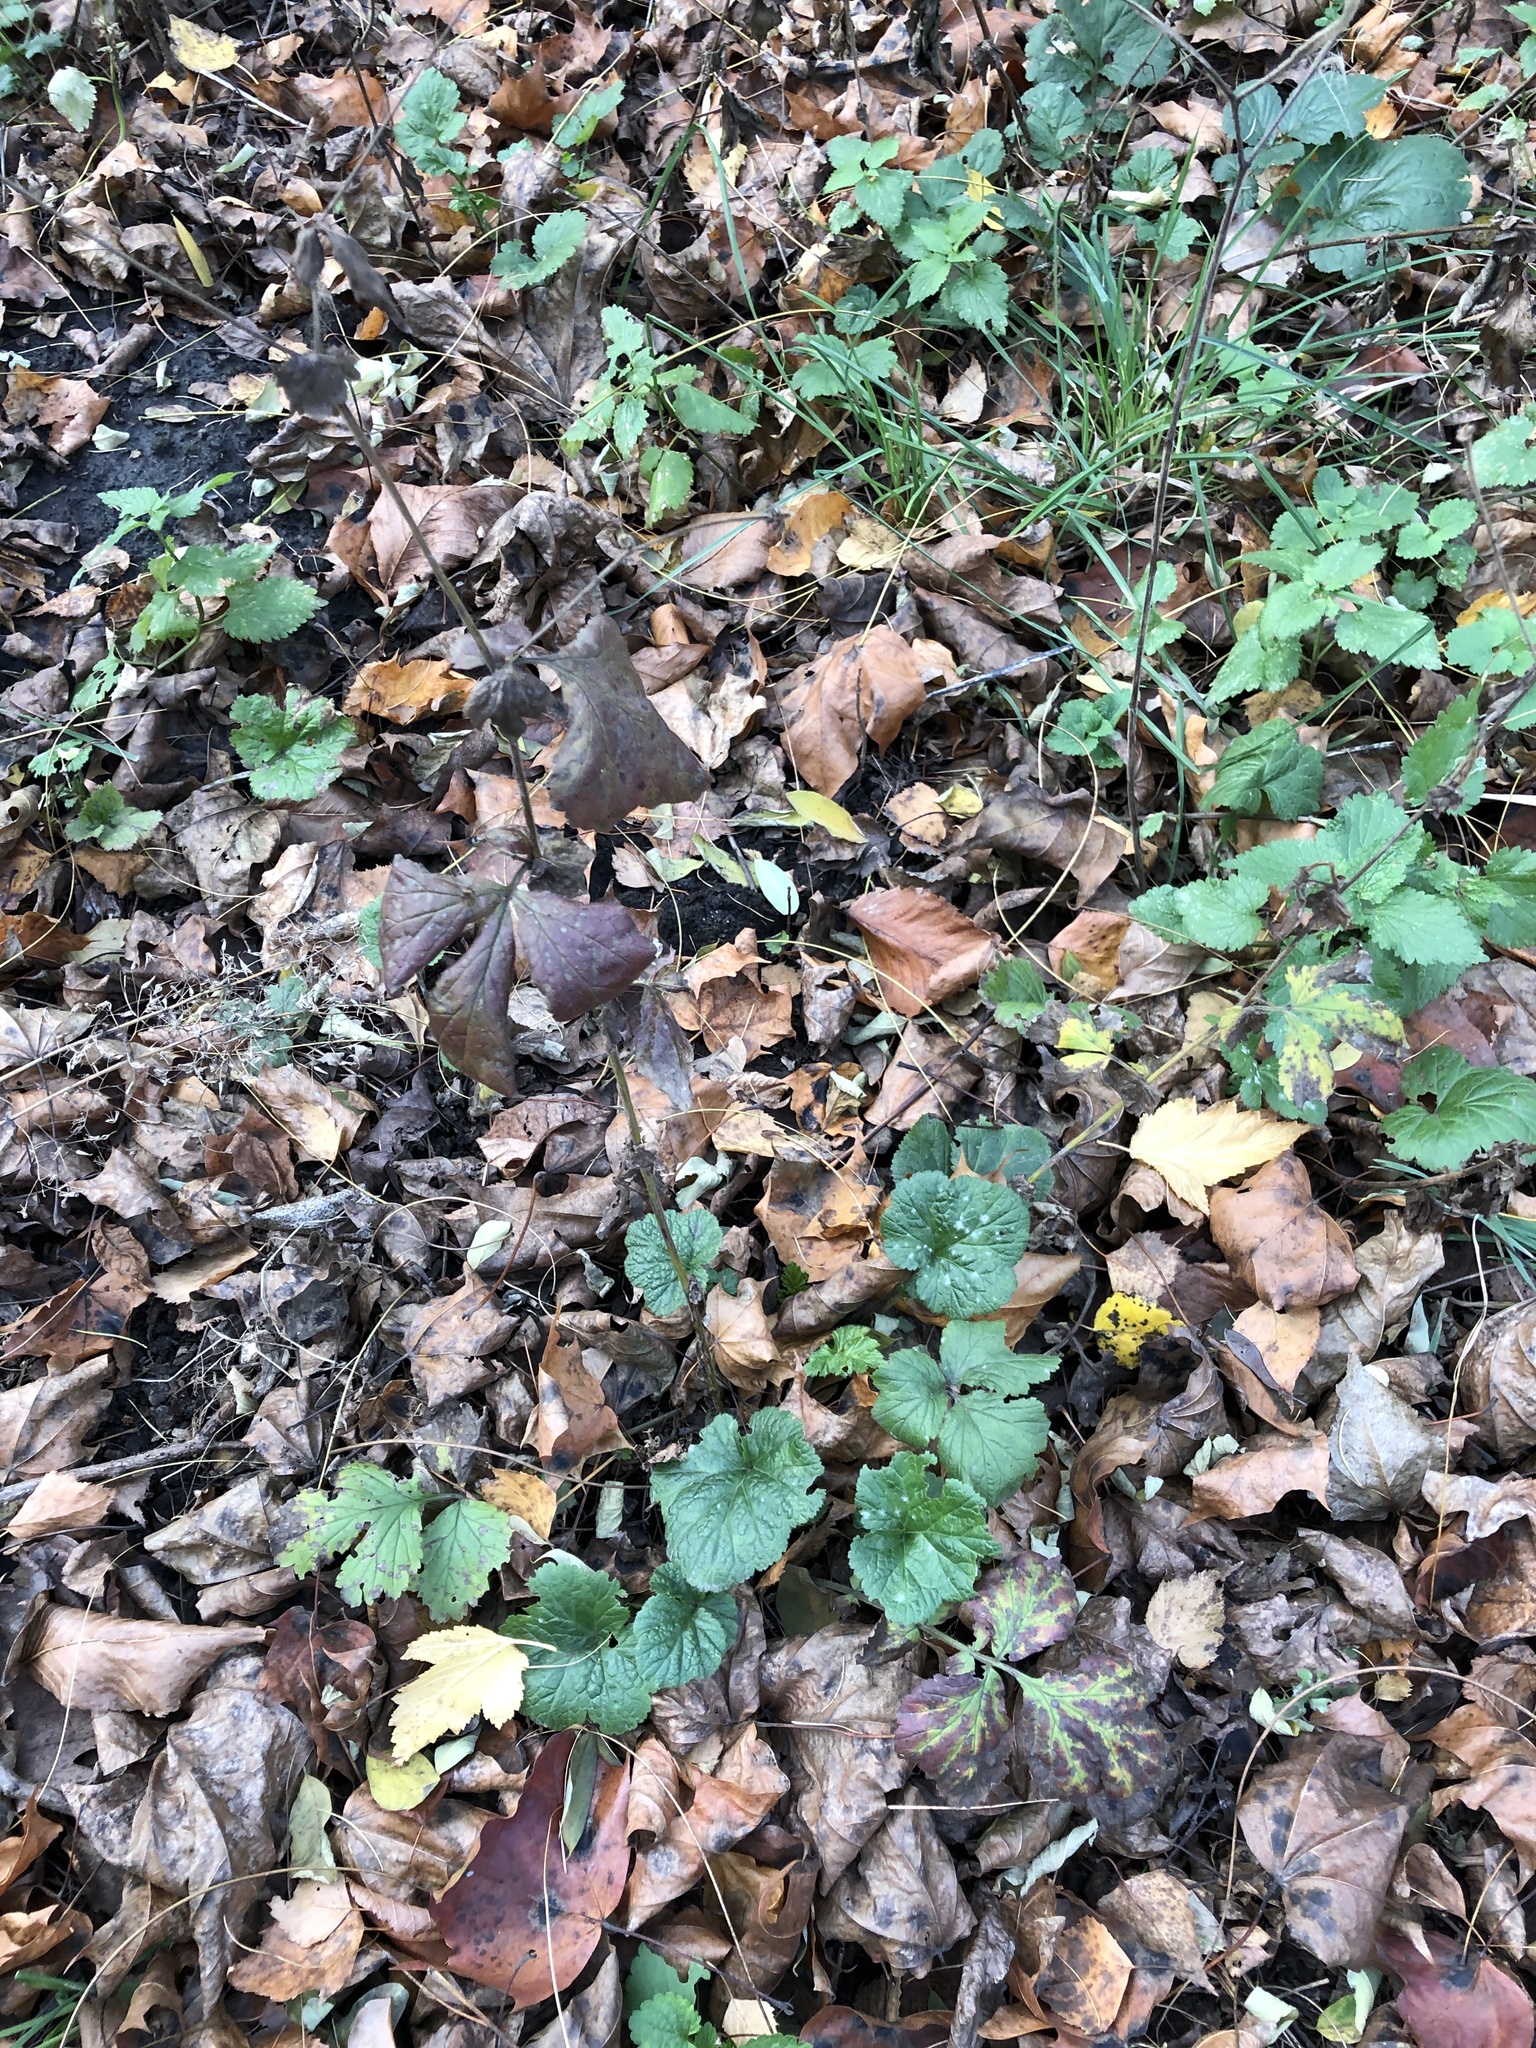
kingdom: Plantae
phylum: Tracheophyta
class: Magnoliopsida
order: Rosales
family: Rosaceae
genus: Geum
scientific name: Geum urbanum
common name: Wood avens
